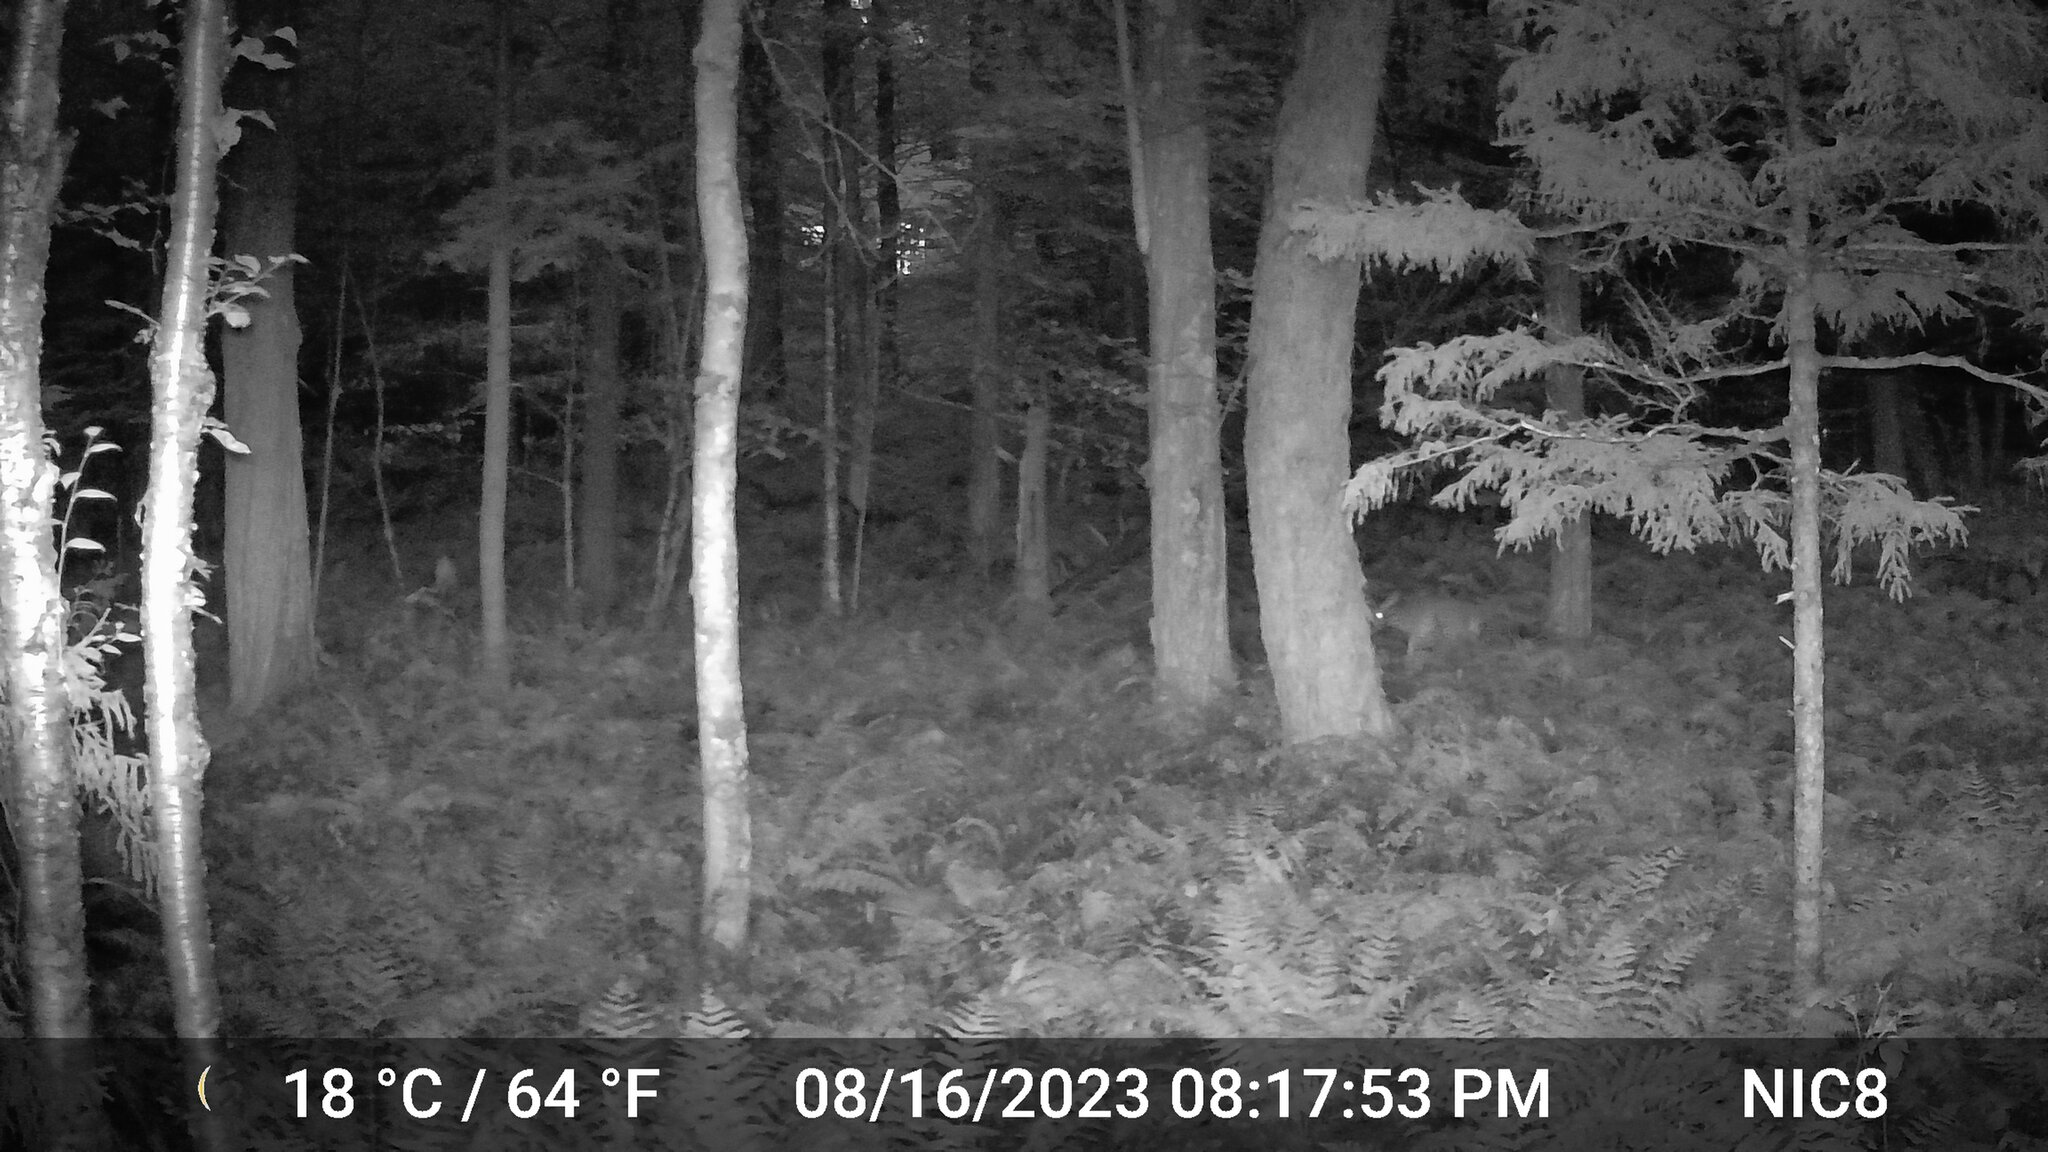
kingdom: Animalia
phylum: Chordata
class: Mammalia
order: Artiodactyla
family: Cervidae
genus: Odocoileus
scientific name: Odocoileus virginianus
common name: White-tailed deer
